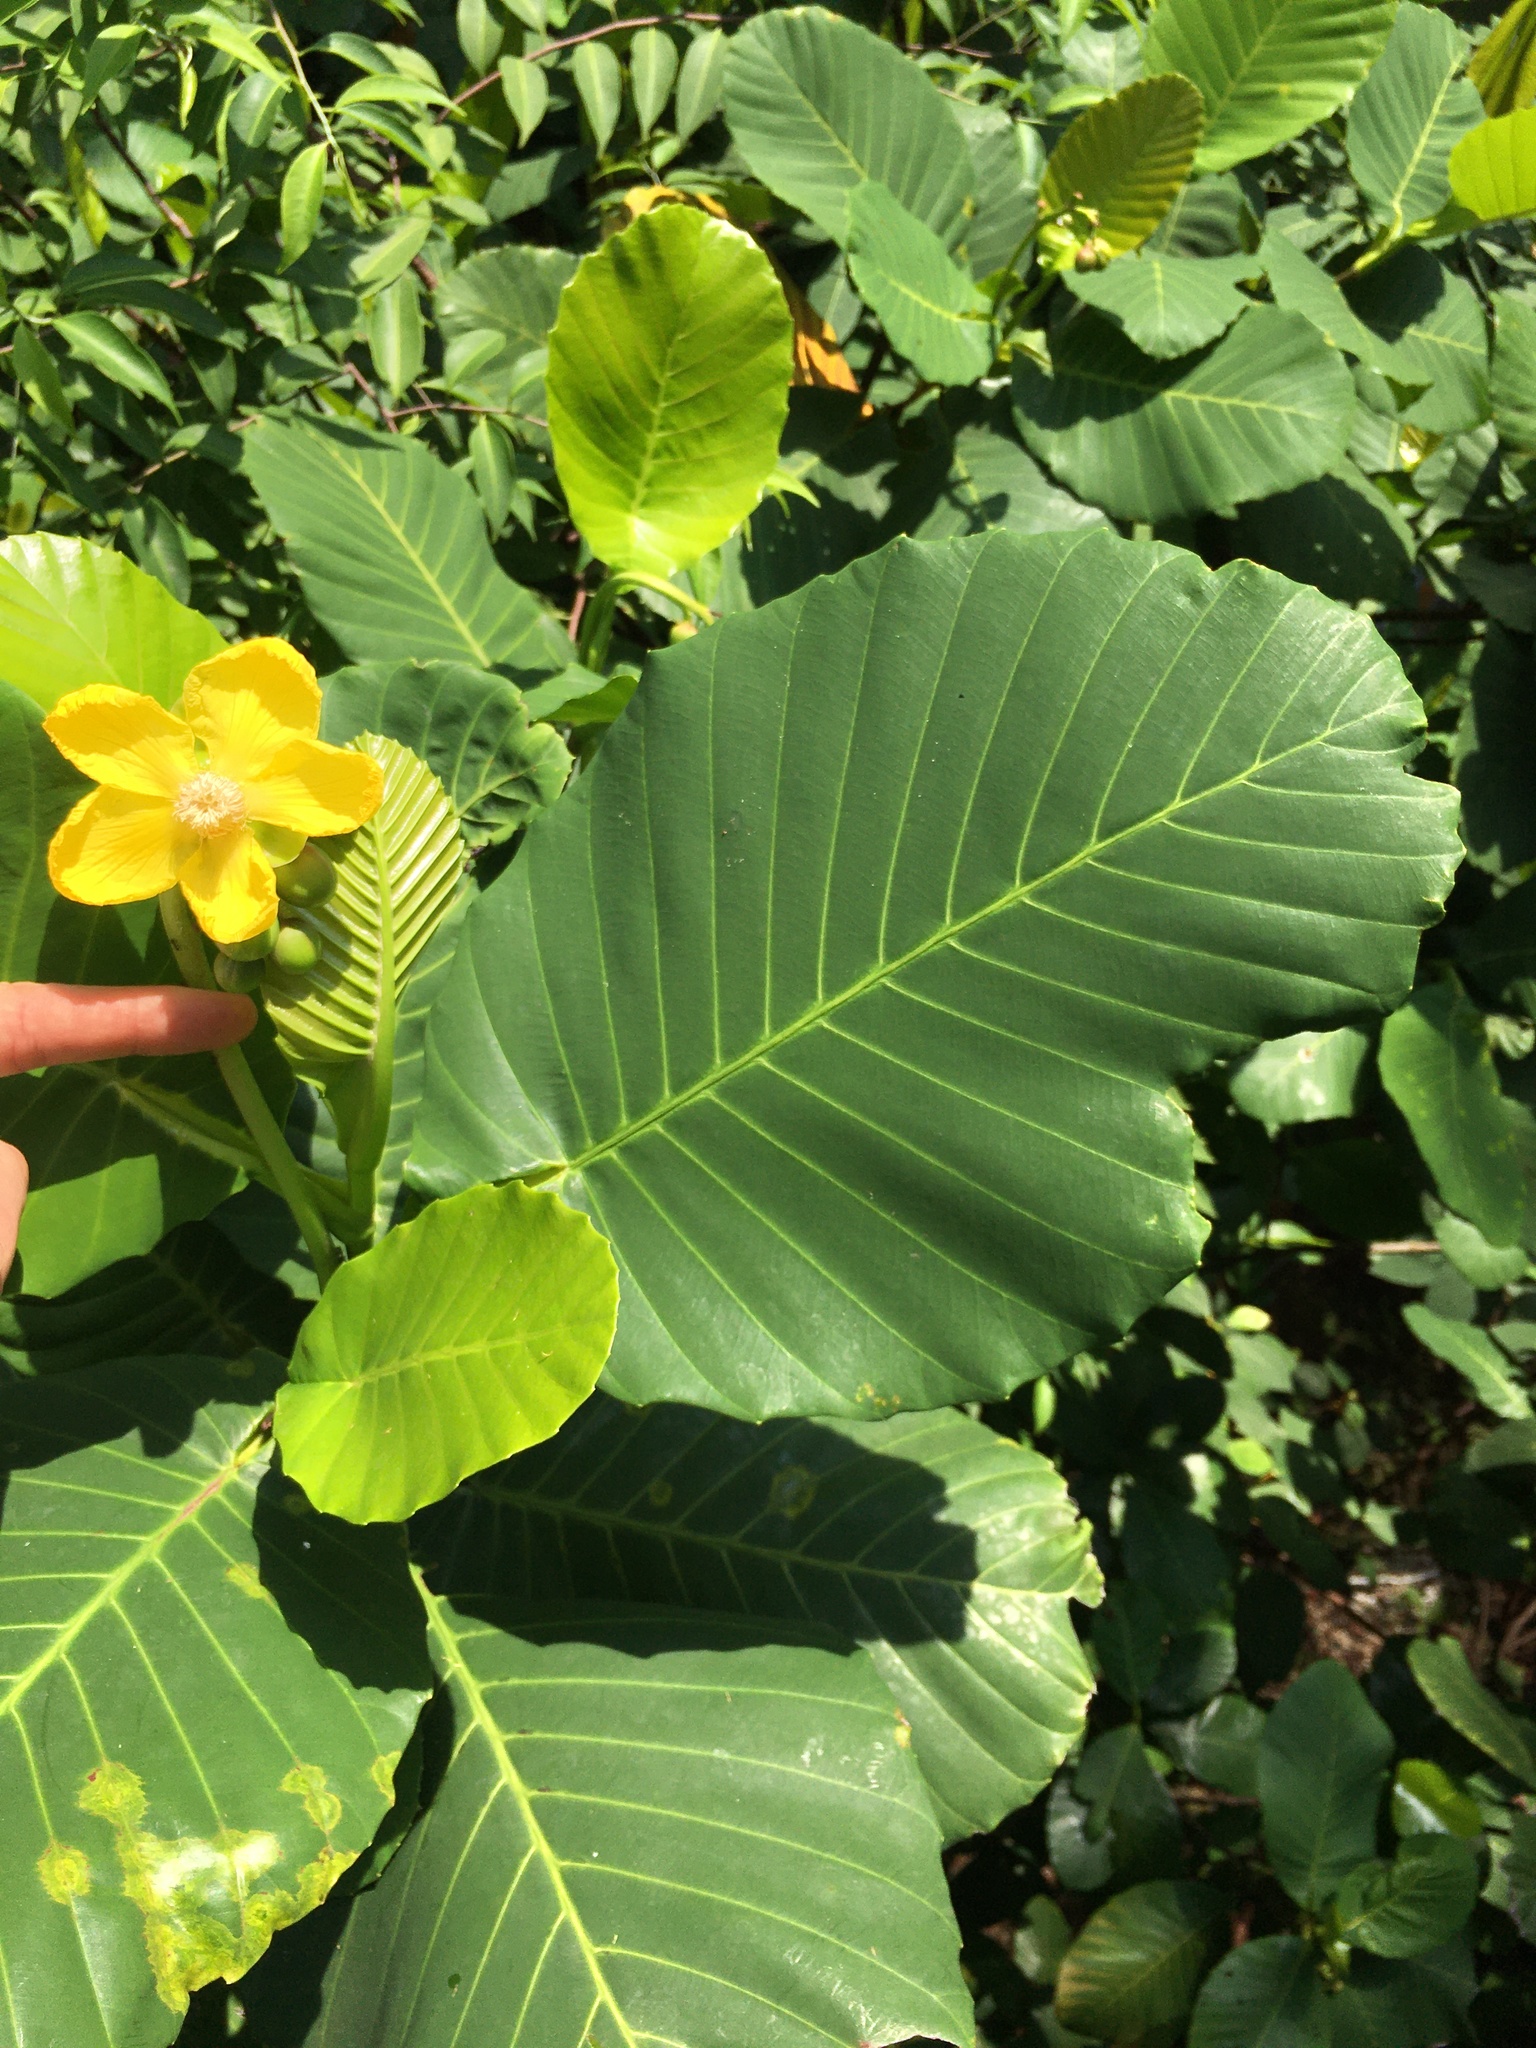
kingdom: Plantae
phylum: Tracheophyta
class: Magnoliopsida
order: Dilleniales
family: Dilleniaceae
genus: Dillenia
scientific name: Dillenia suffruticosa
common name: Shrubby dillenia
